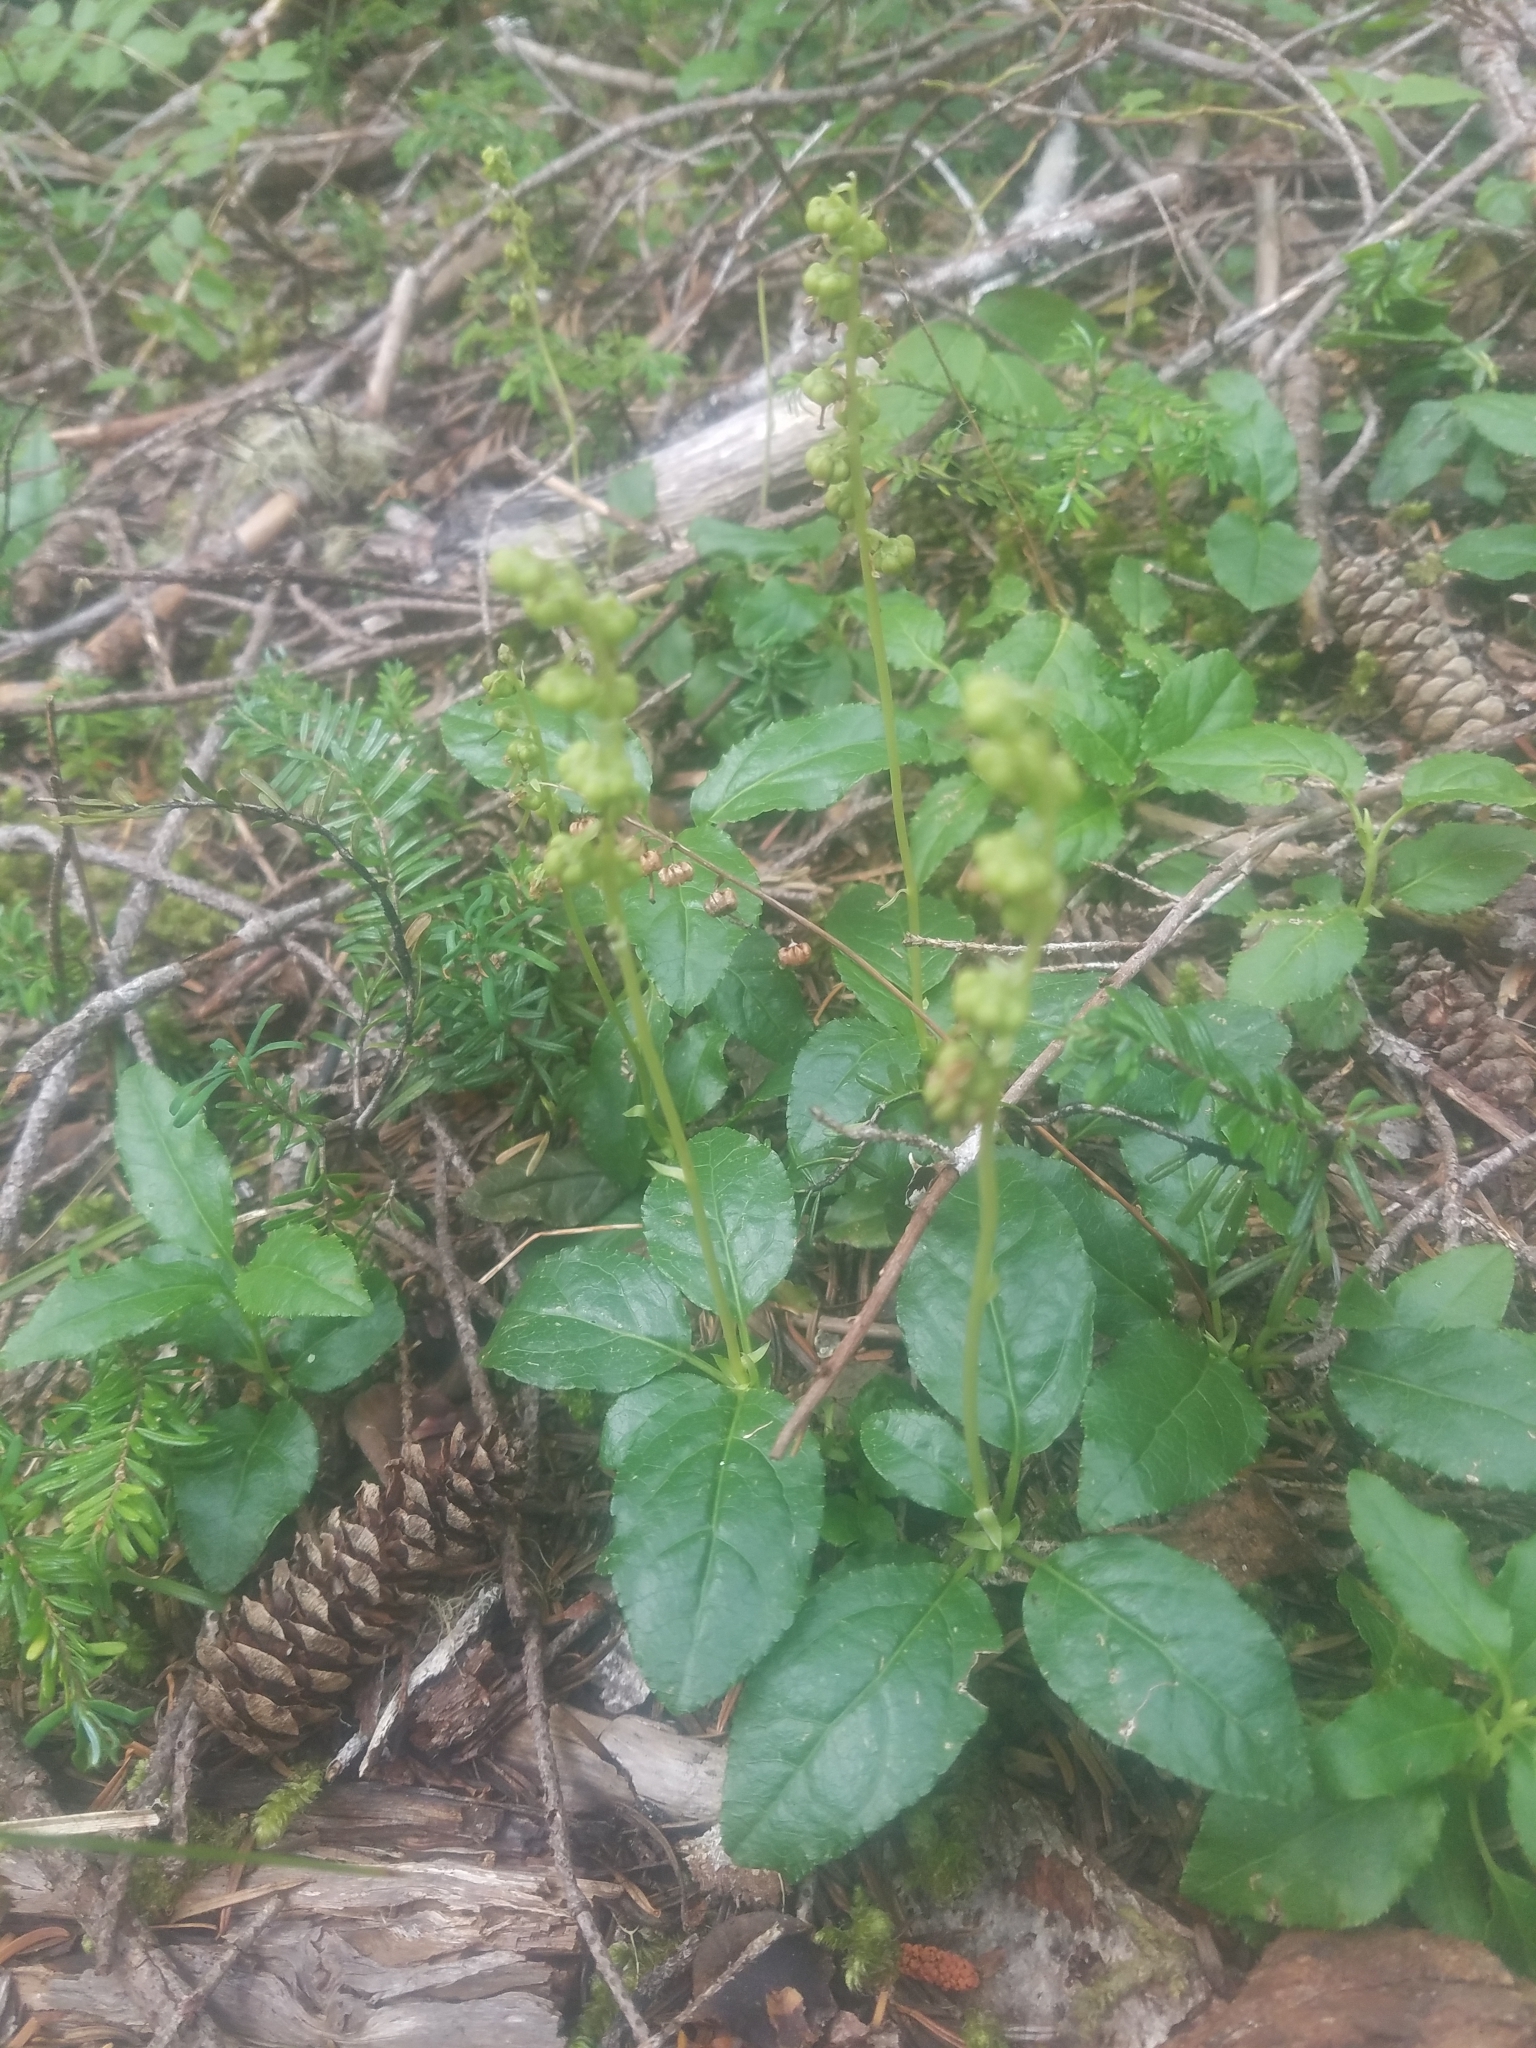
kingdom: Plantae
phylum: Tracheophyta
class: Magnoliopsida
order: Ericales
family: Ericaceae
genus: Orthilia
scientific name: Orthilia secunda
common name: One-sided orthilia
